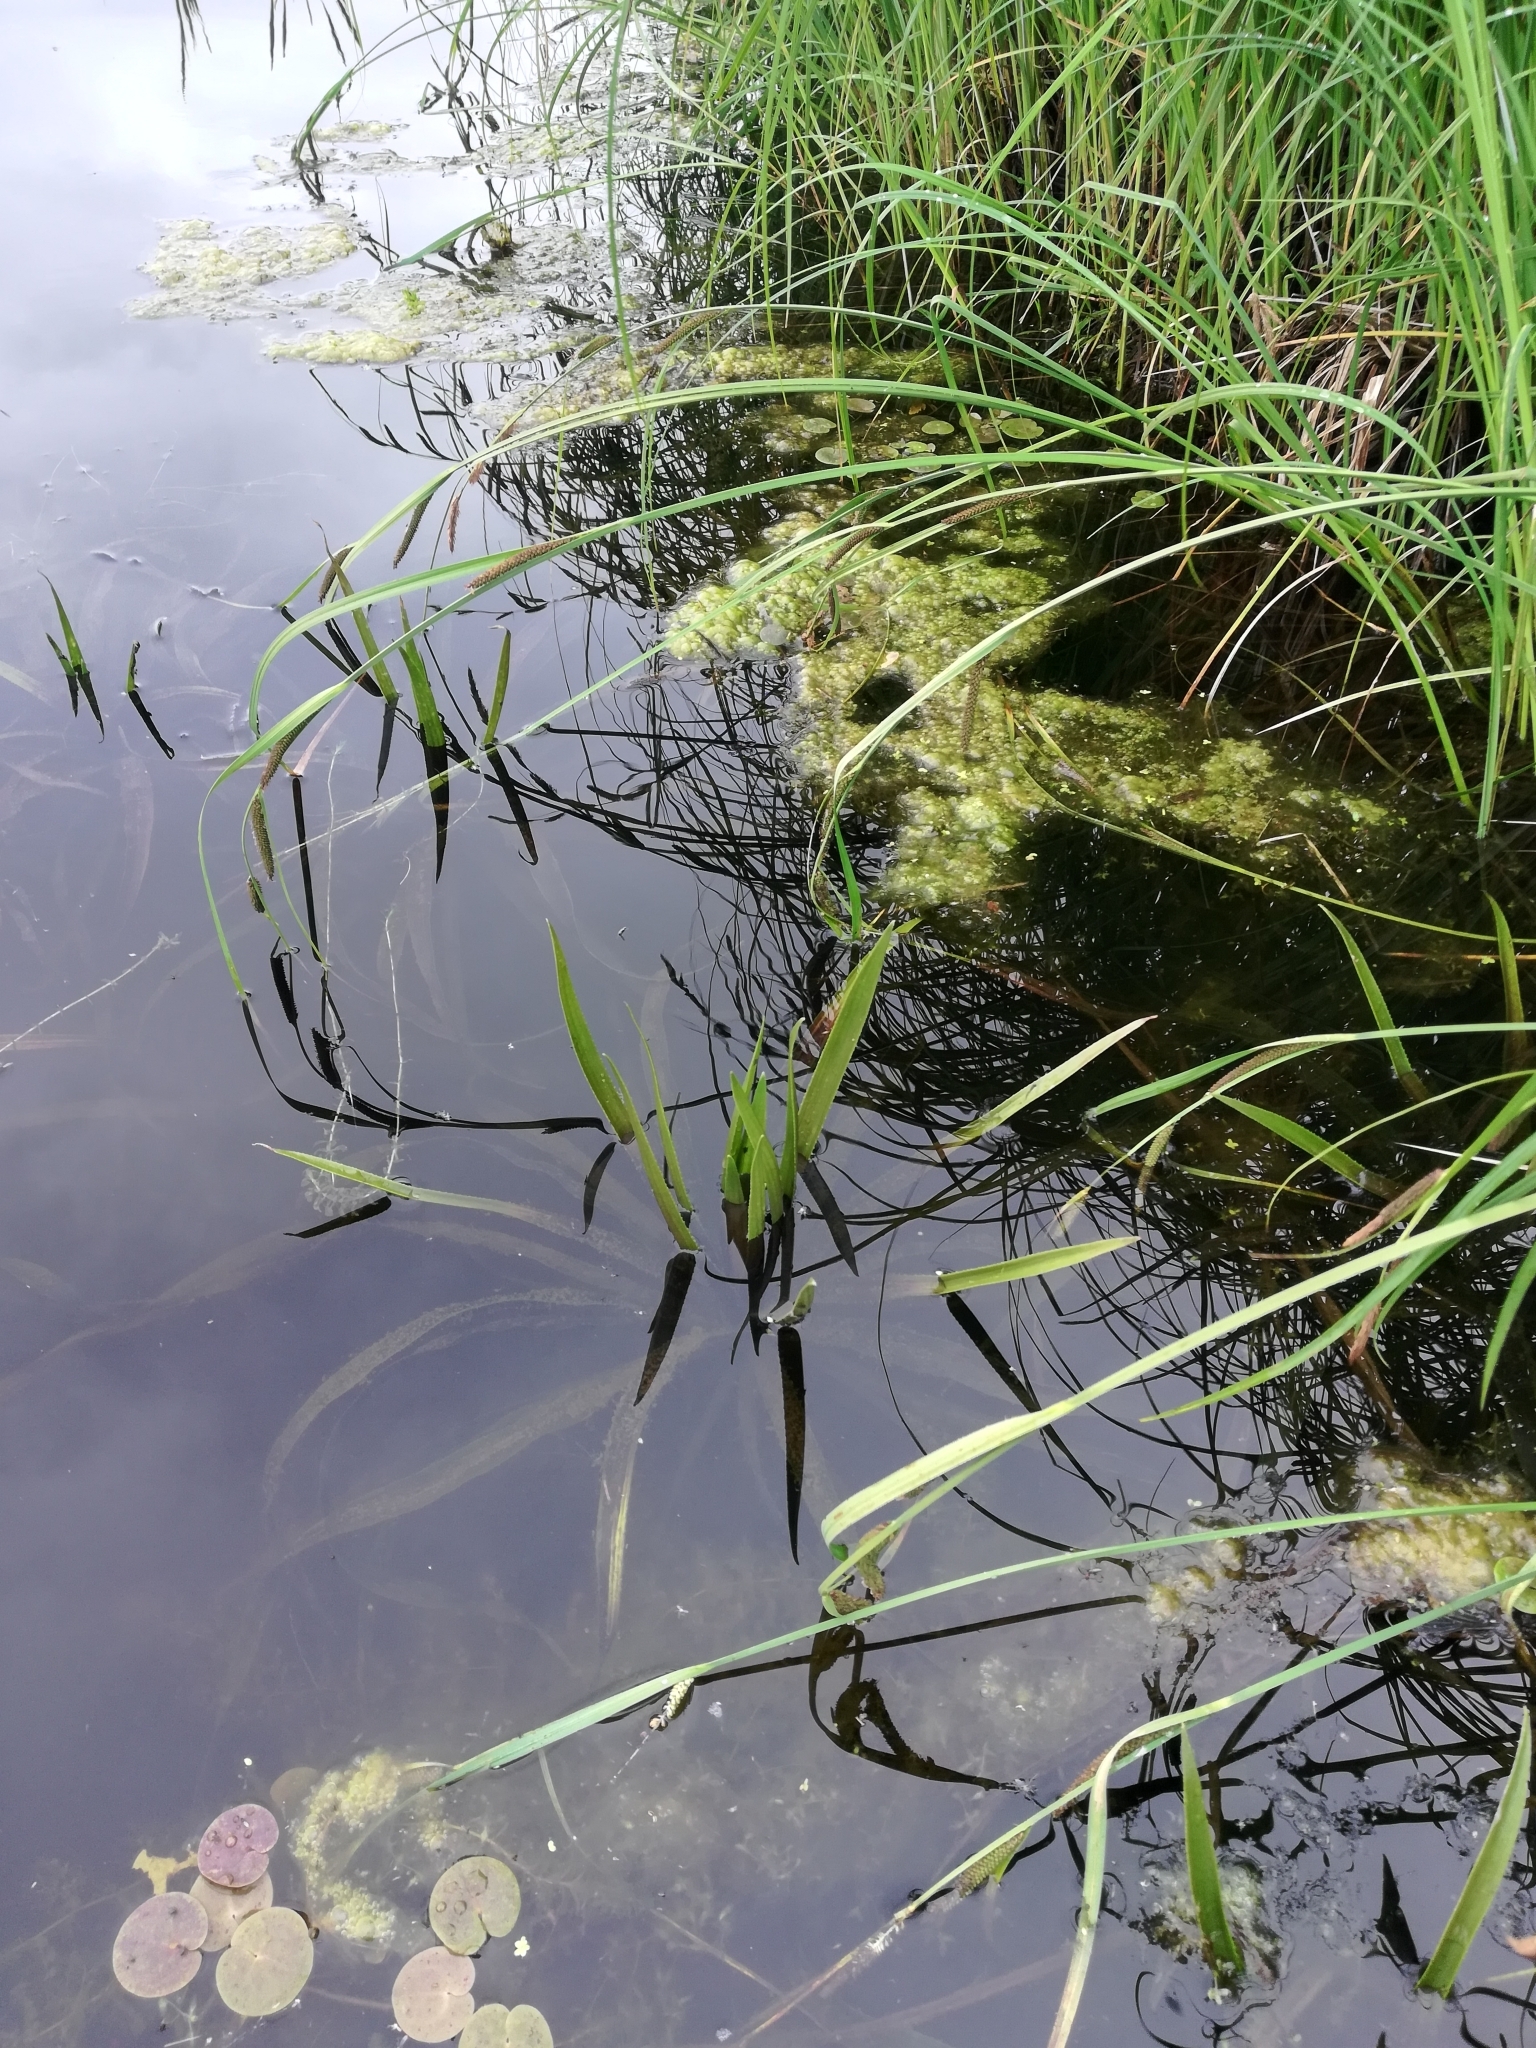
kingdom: Plantae
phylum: Tracheophyta
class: Liliopsida
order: Alismatales
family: Hydrocharitaceae
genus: Stratiotes
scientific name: Stratiotes aloides
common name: Water-soldier
